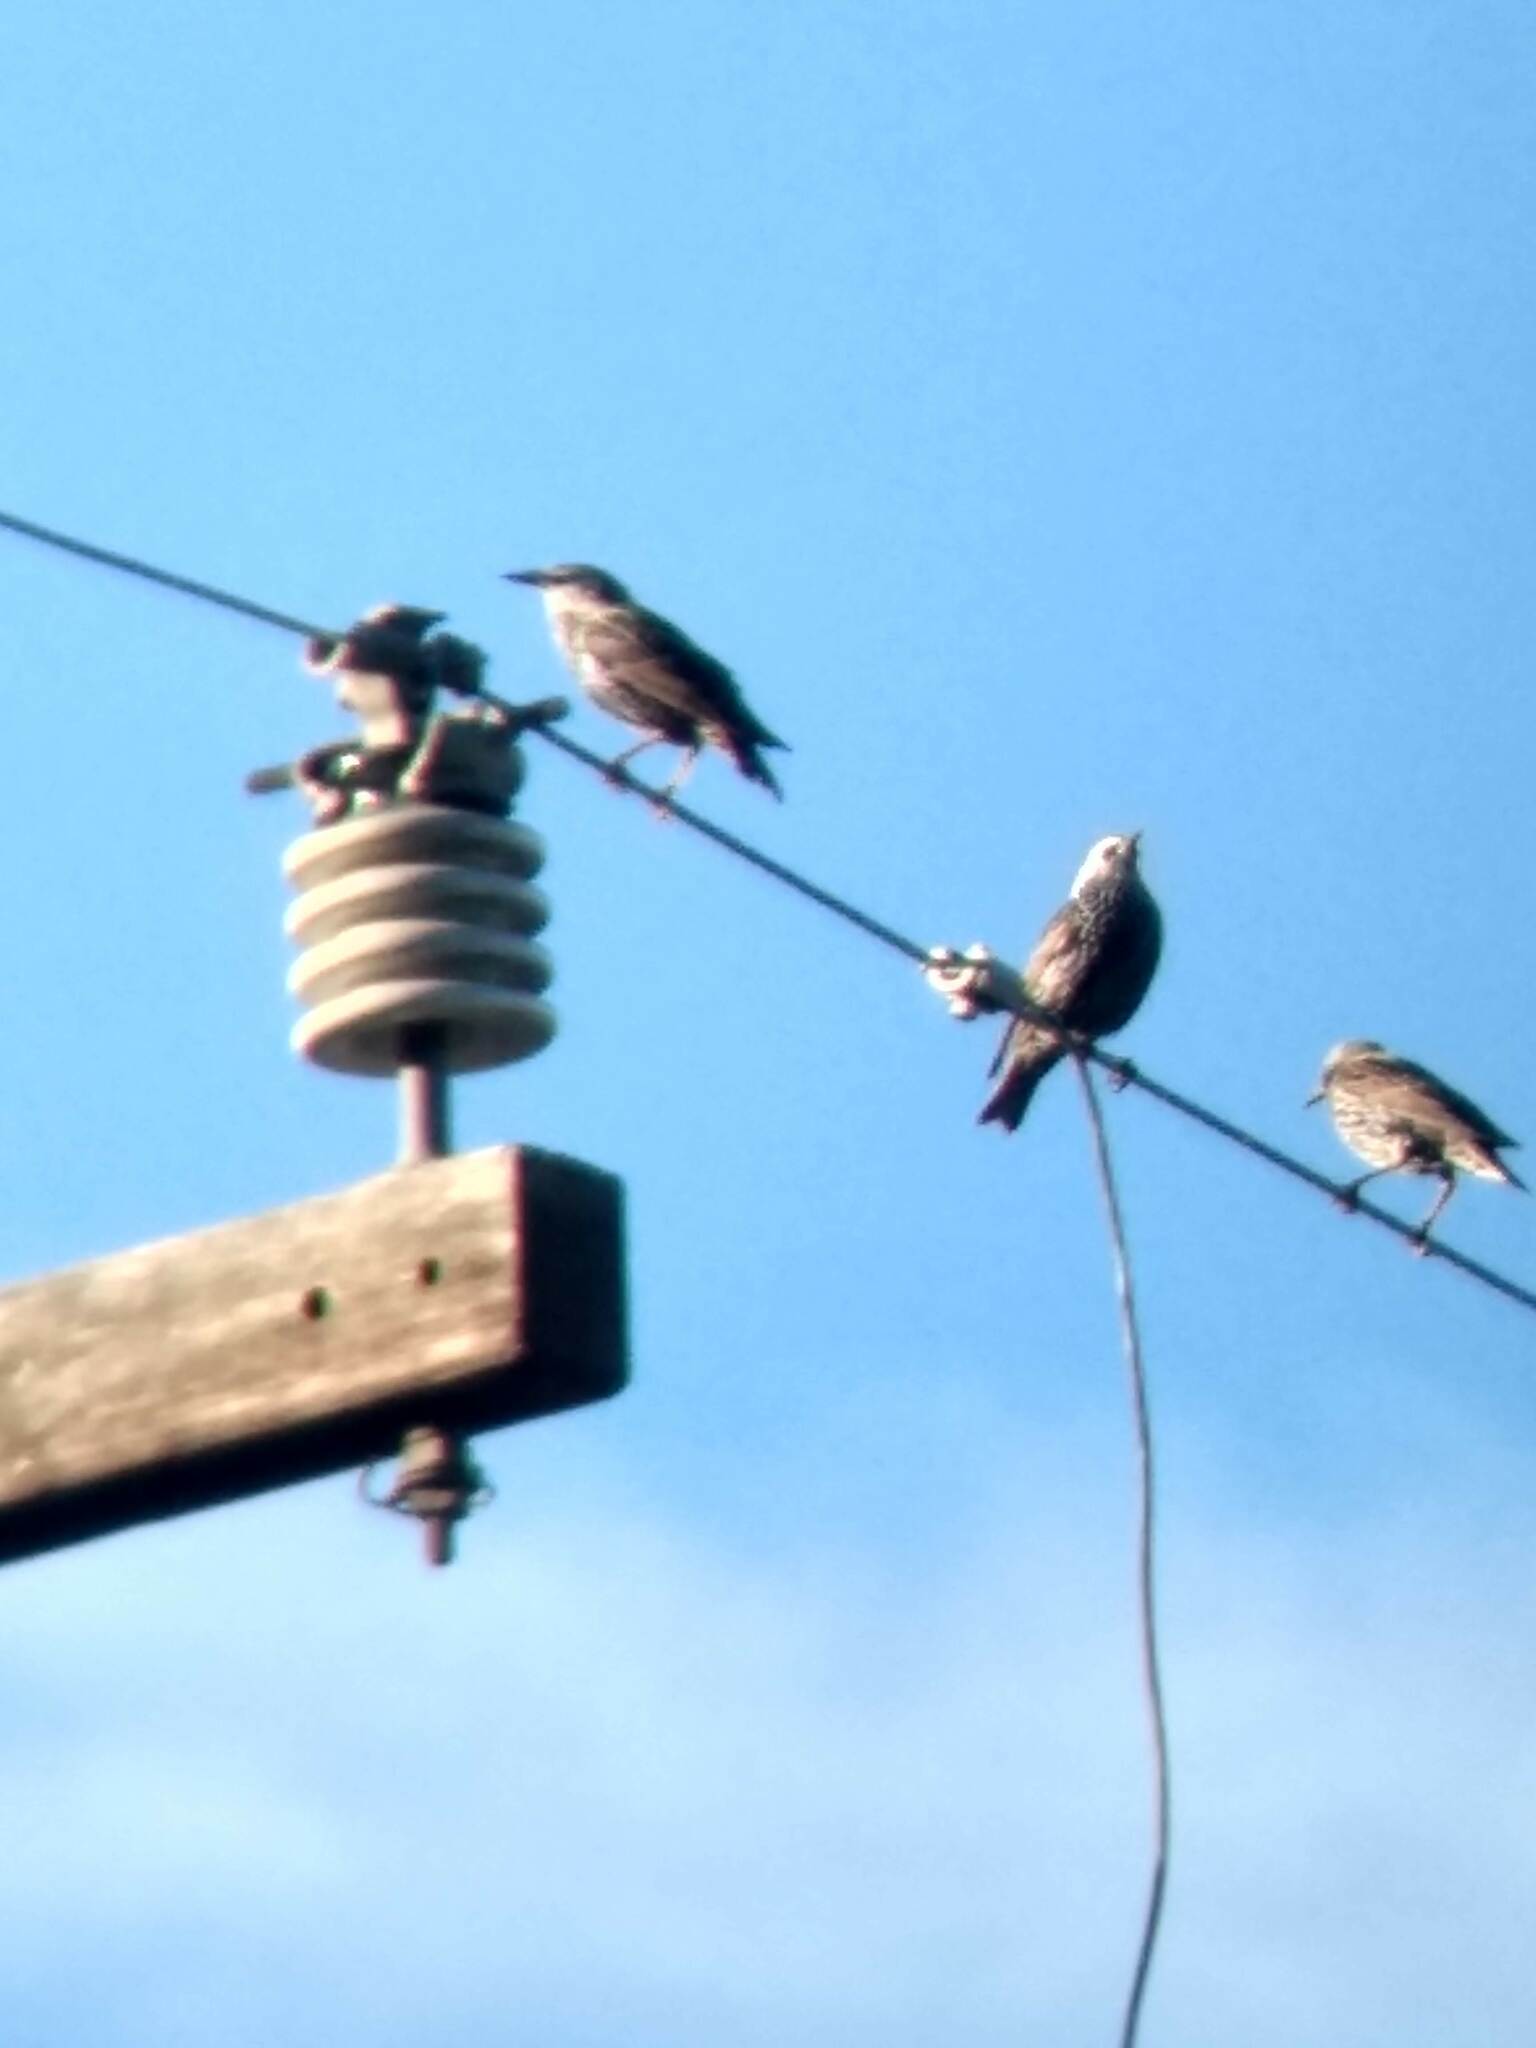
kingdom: Animalia
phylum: Chordata
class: Aves
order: Passeriformes
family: Sturnidae
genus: Sturnus
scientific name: Sturnus vulgaris
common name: Common starling
